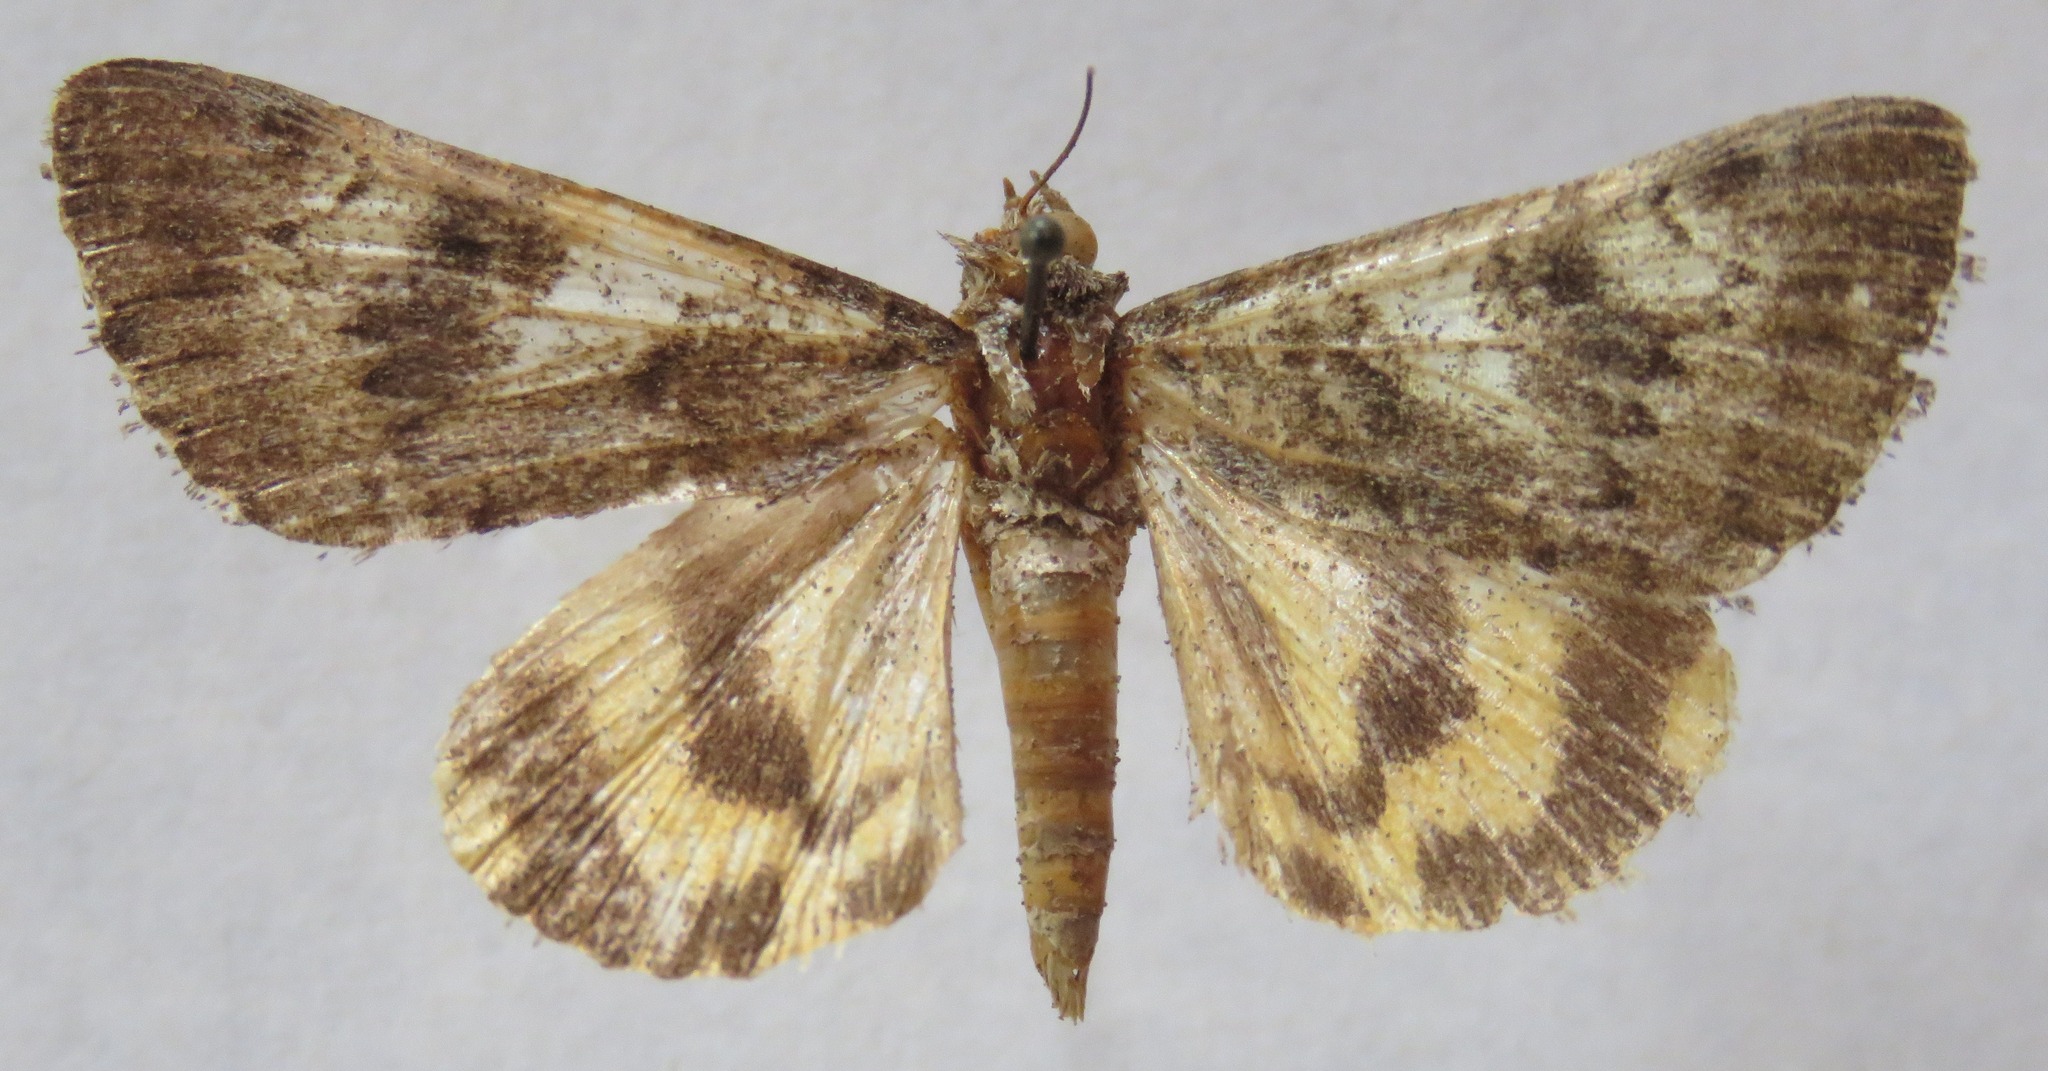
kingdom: Animalia
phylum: Arthropoda
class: Insecta
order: Lepidoptera
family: Erebidae
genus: Catocala
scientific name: Catocala nymphagoga
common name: Oak yellow underwing
